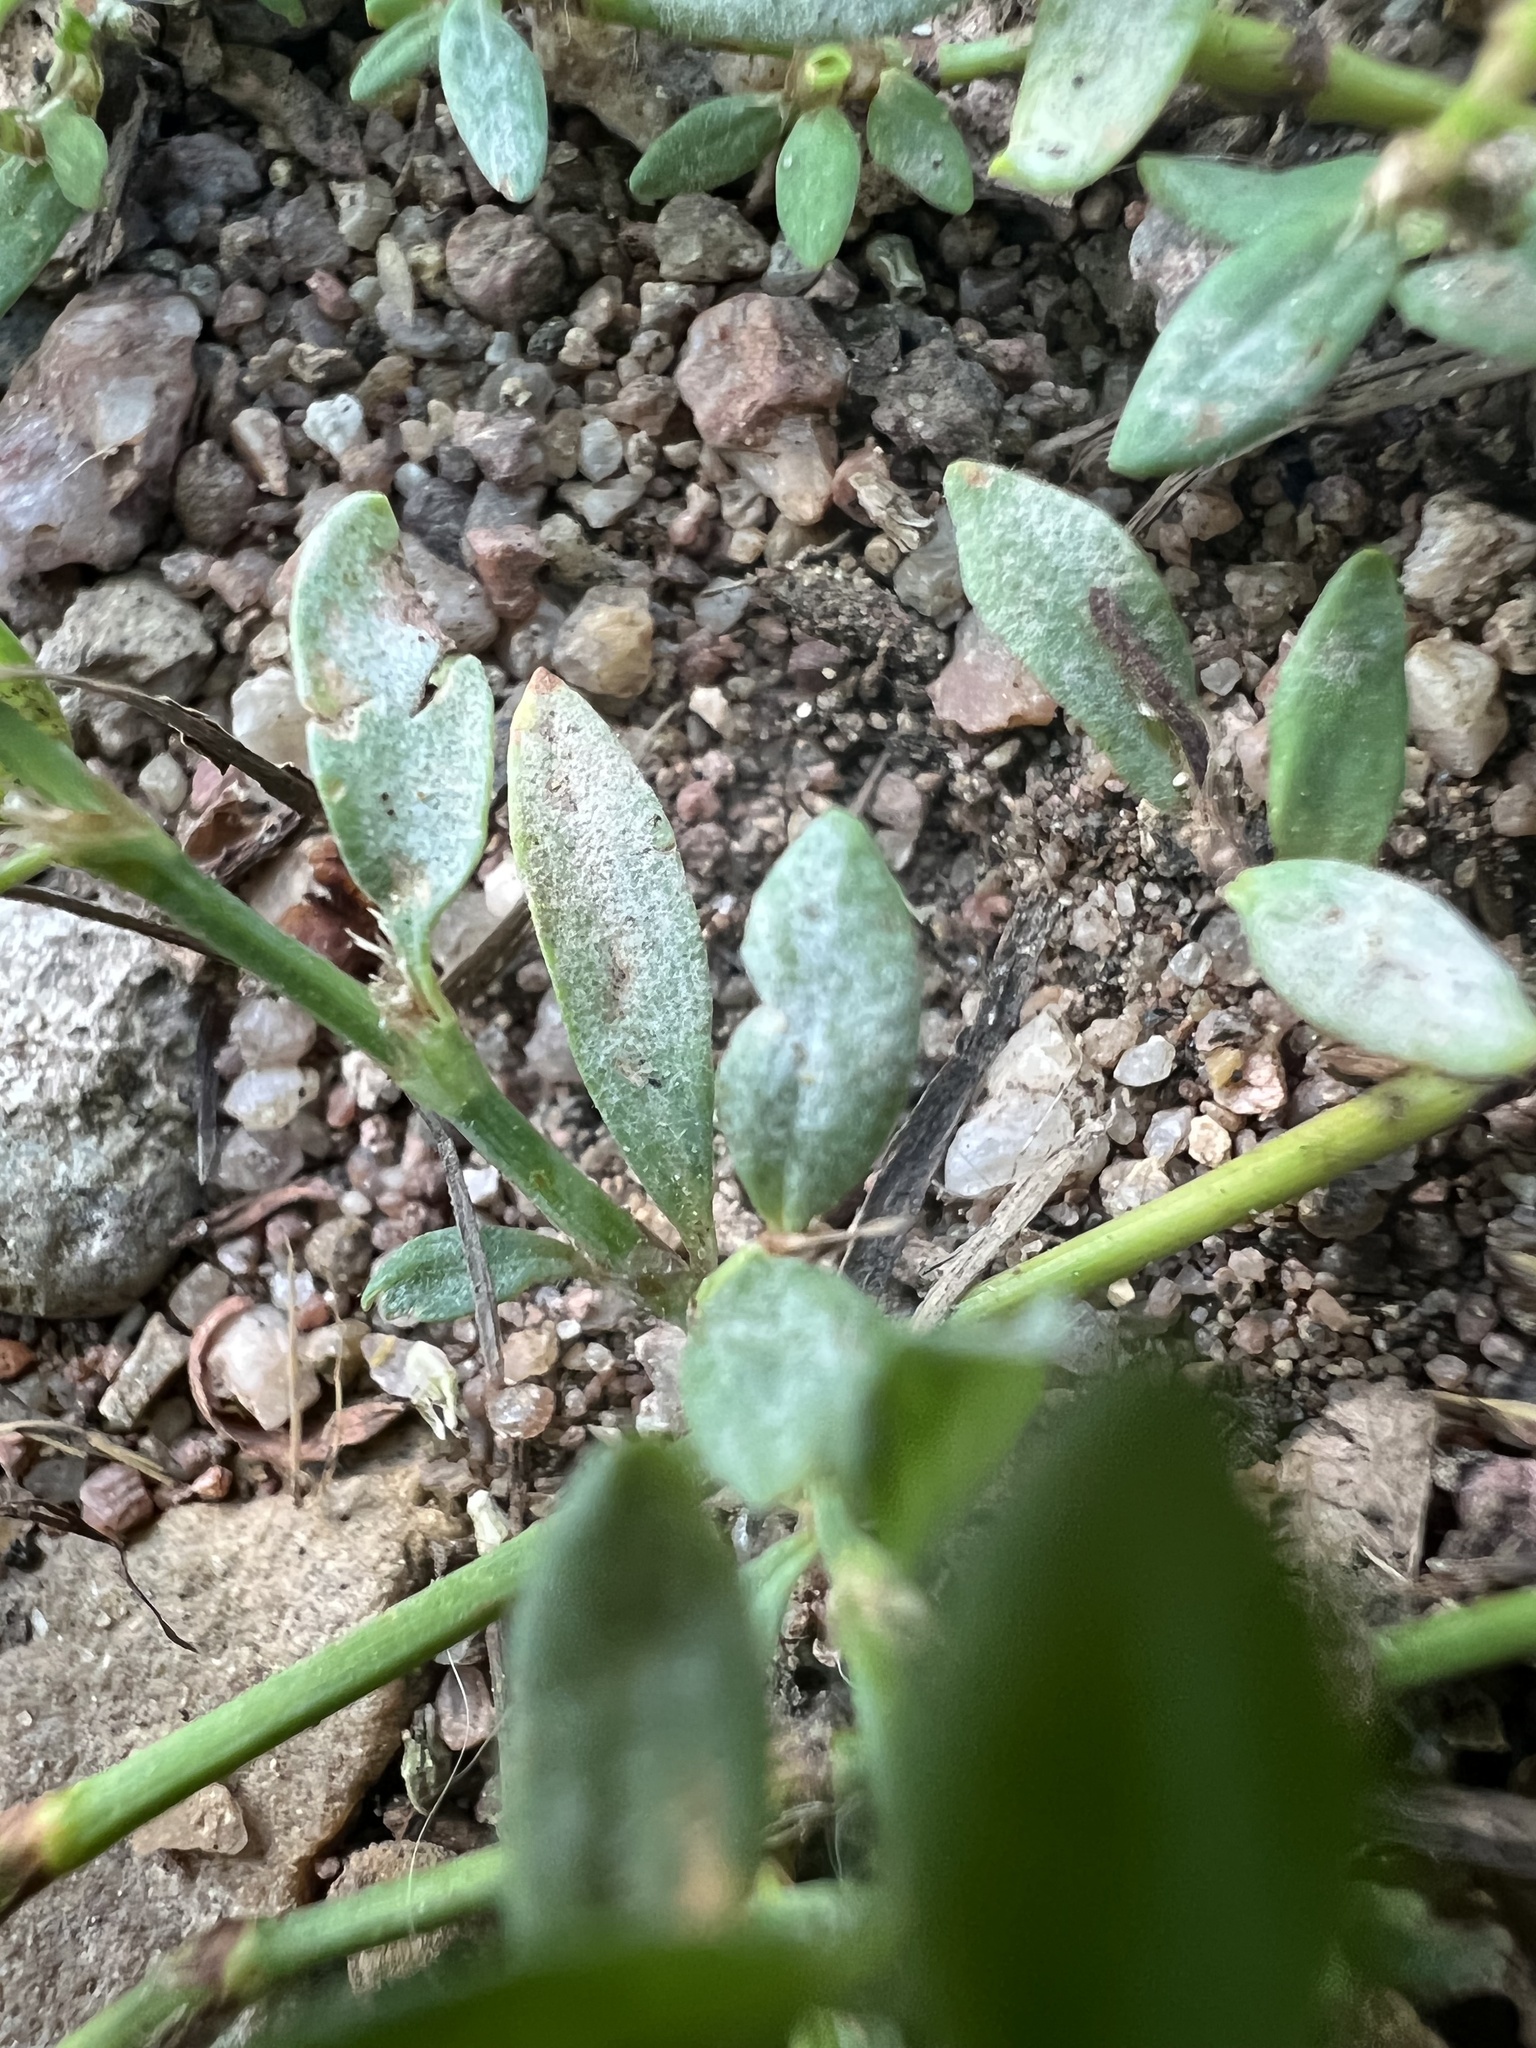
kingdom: Fungi
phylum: Ascomycota
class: Leotiomycetes
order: Helotiales
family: Erysiphaceae
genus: Erysiphe
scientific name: Erysiphe polygoni
